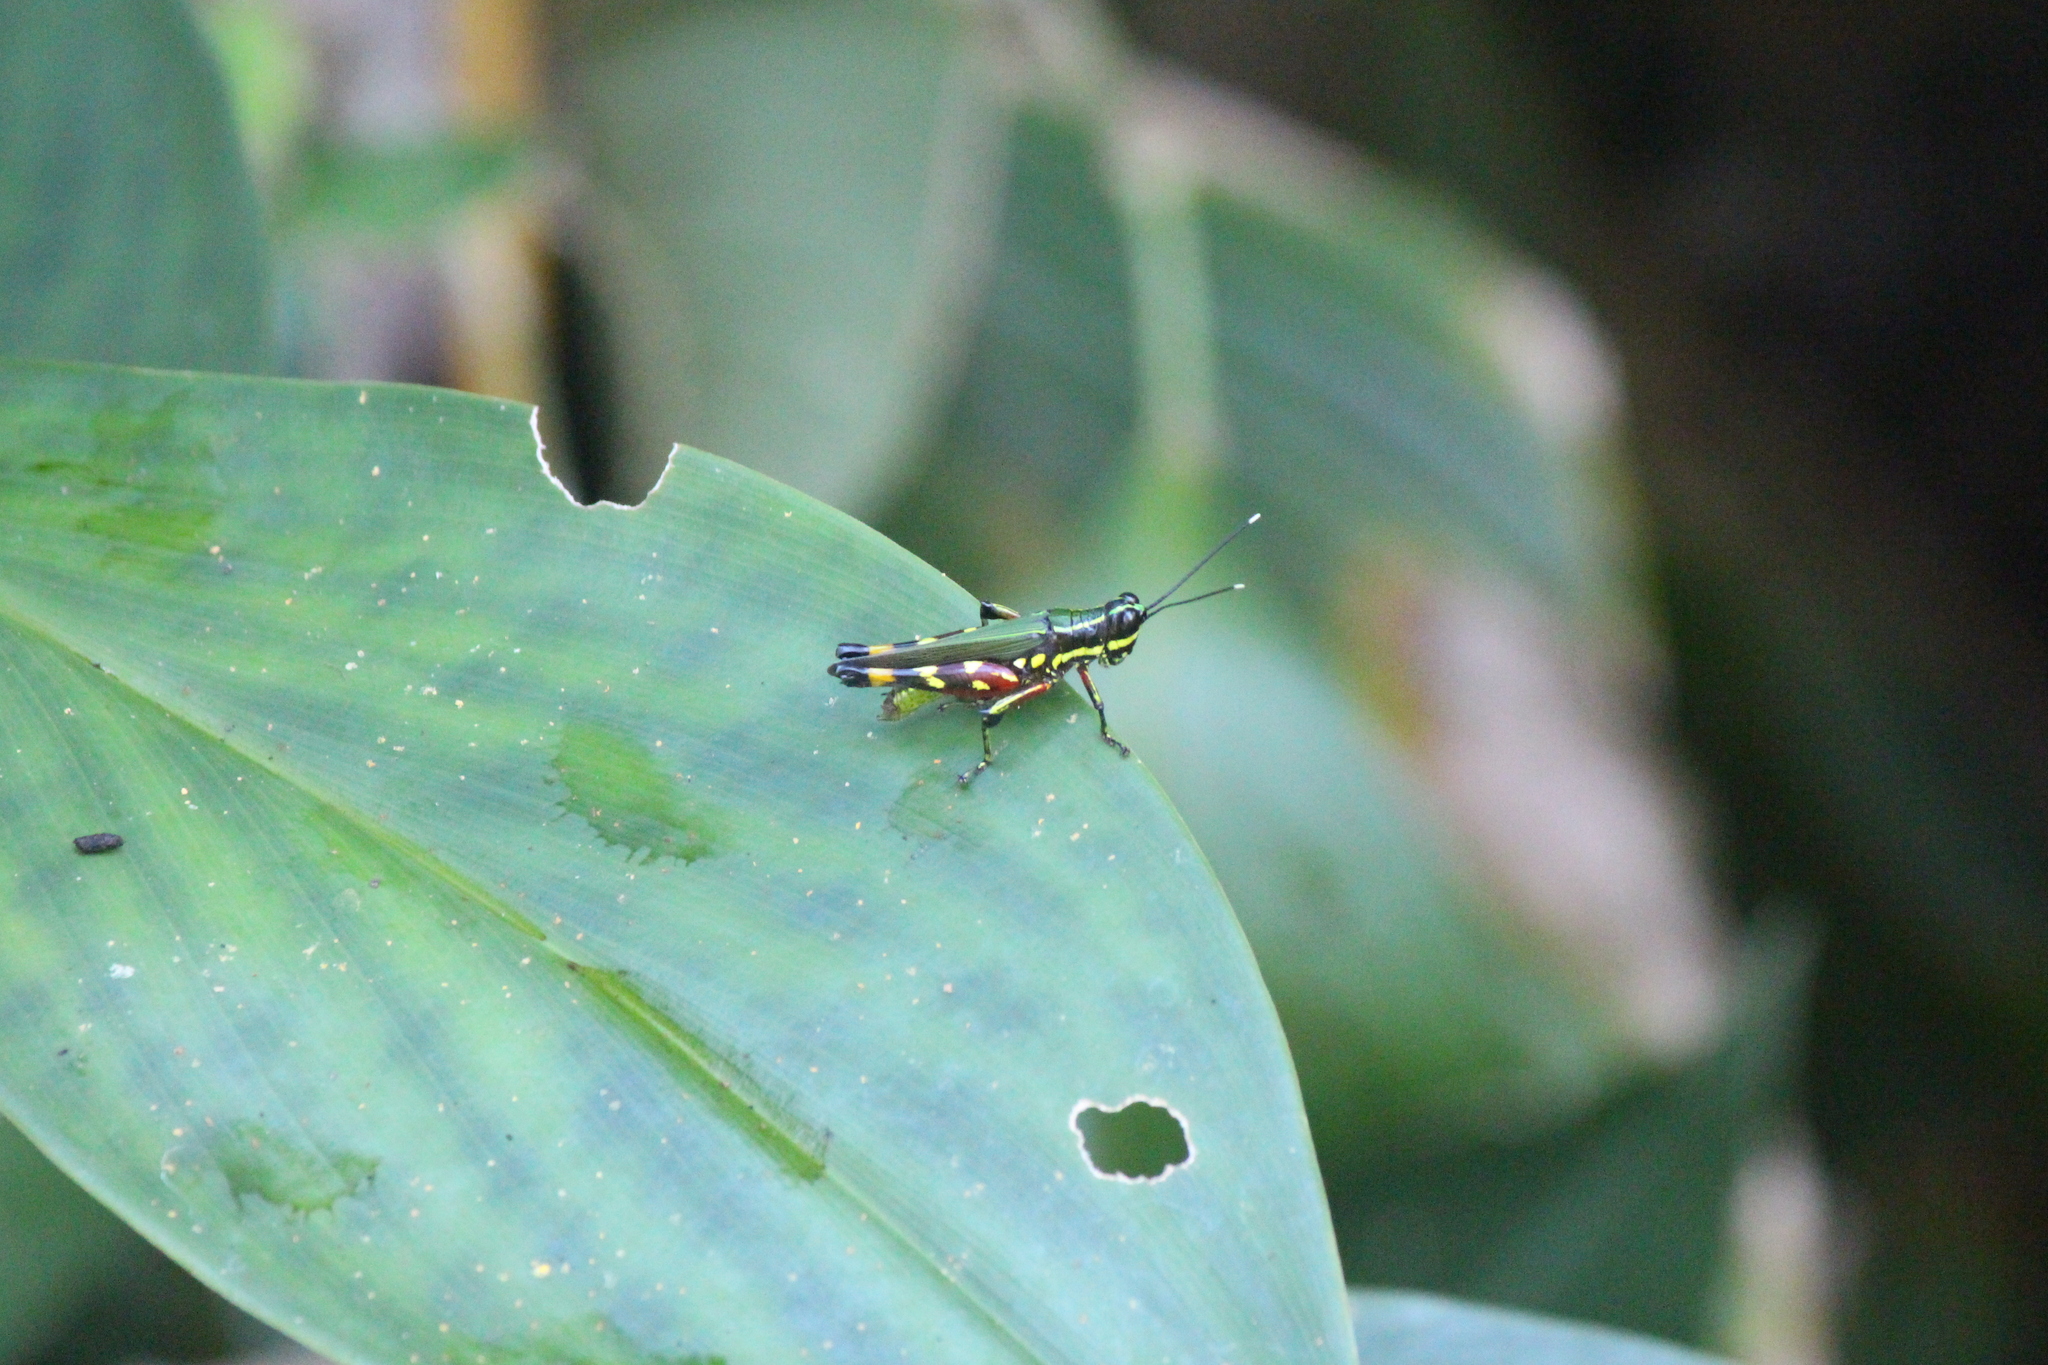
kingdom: Animalia
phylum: Arthropoda
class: Insecta
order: Orthoptera
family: Acrididae
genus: Tetrataenia
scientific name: Tetrataenia surinama
